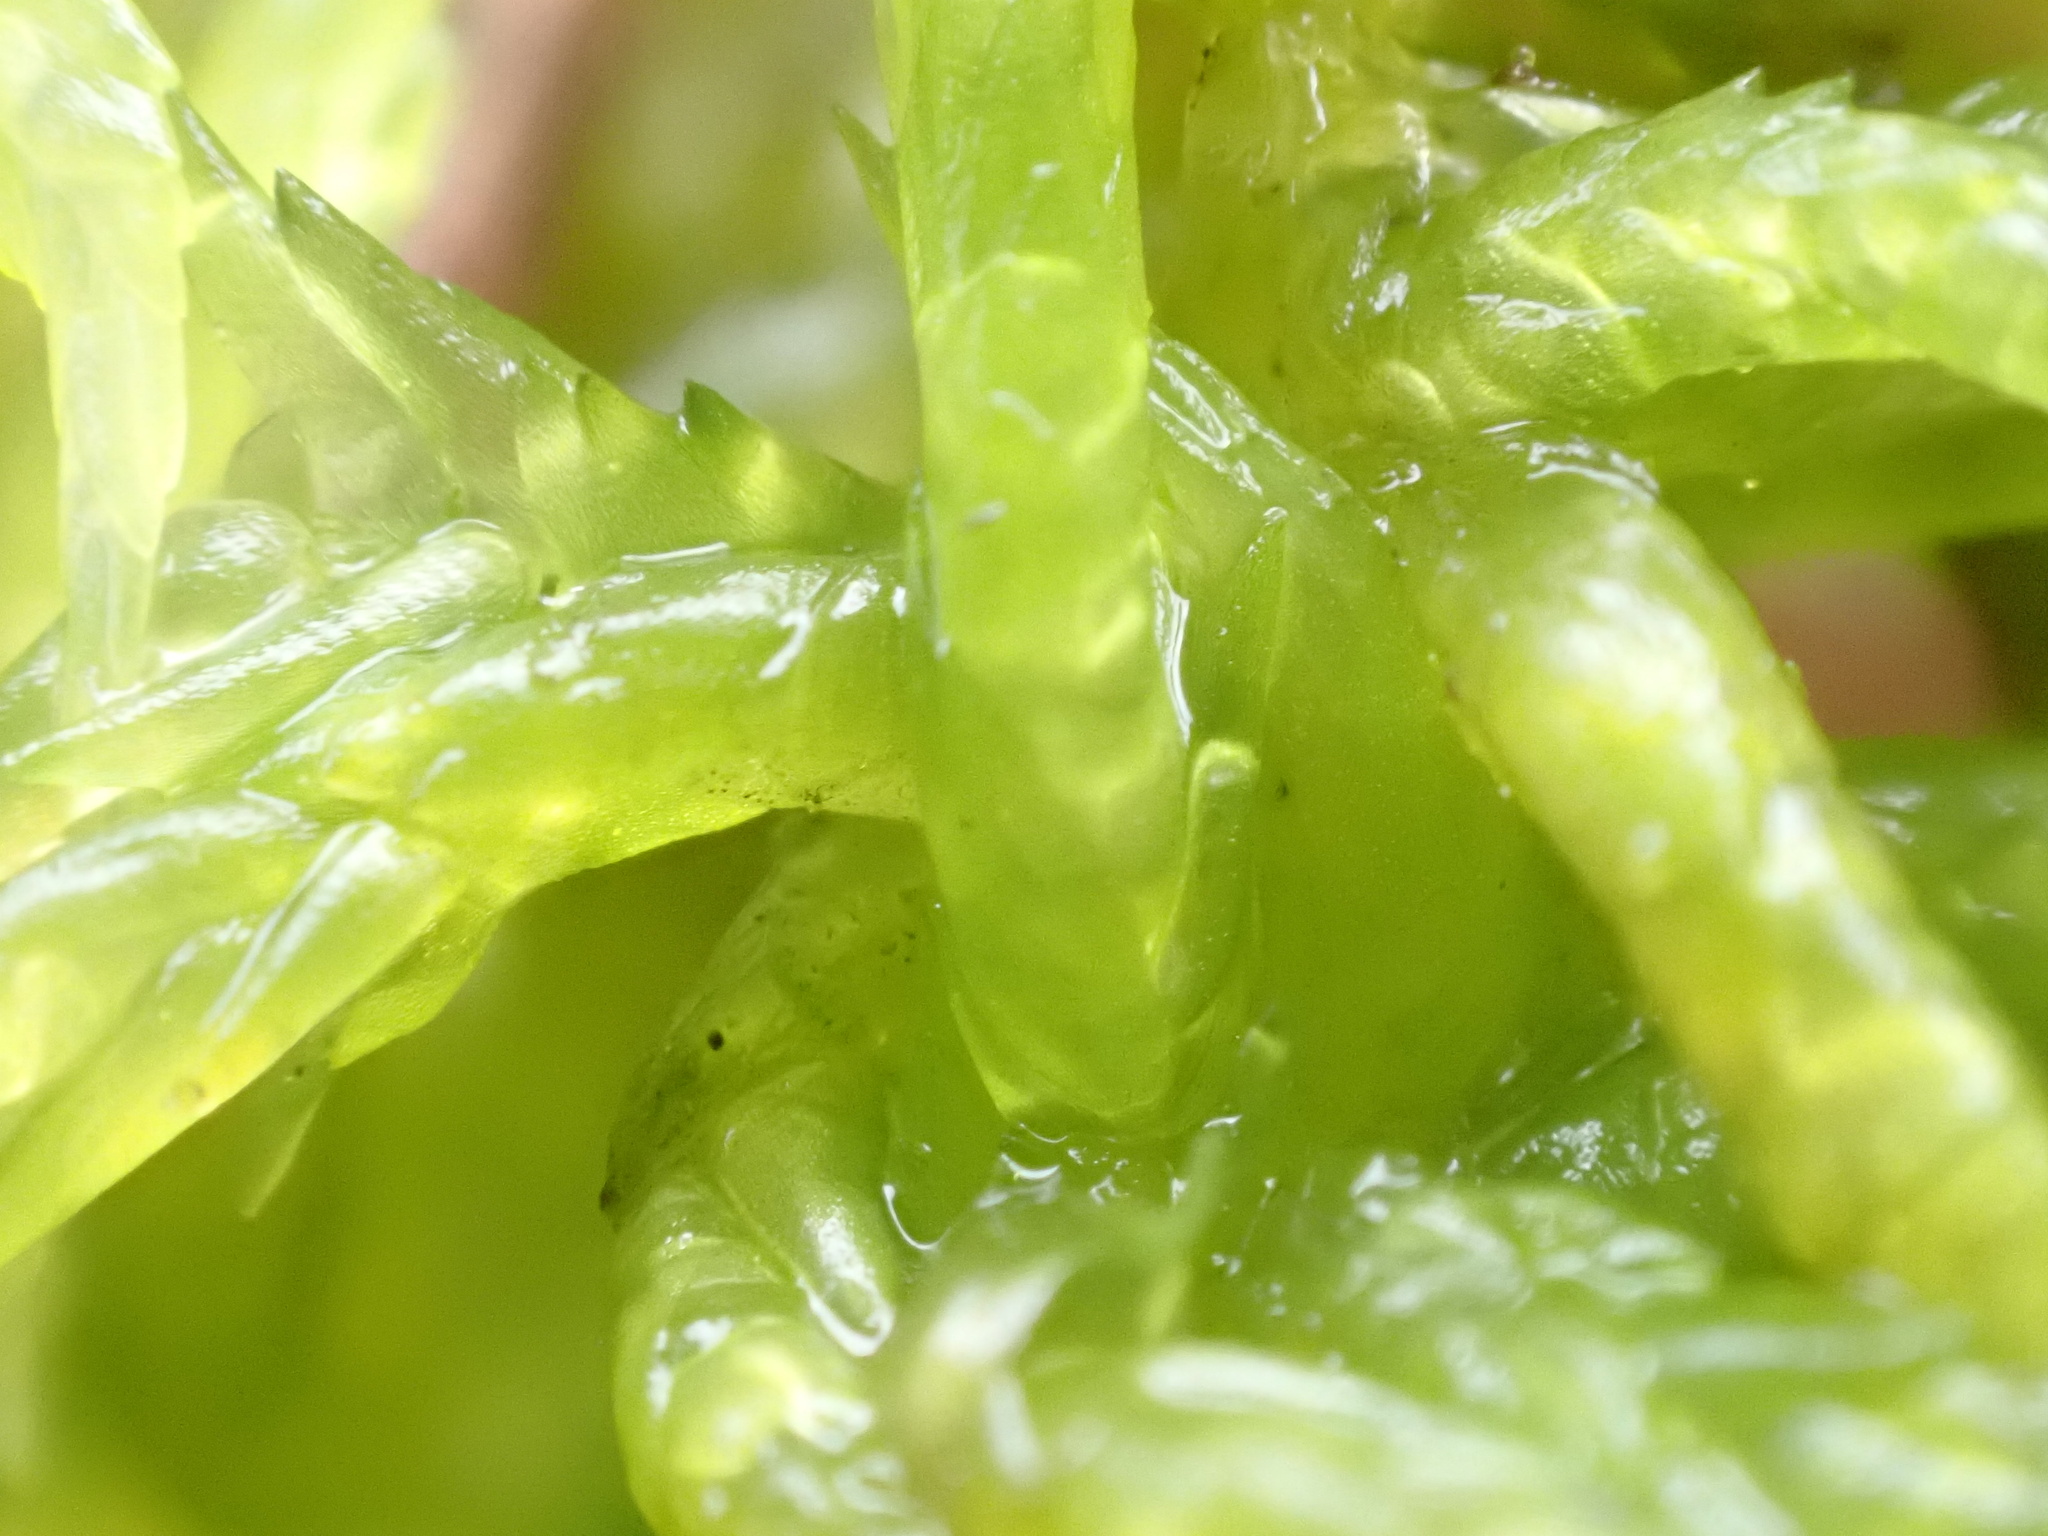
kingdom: Plantae
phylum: Bryophyta
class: Sphagnopsida
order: Sphagnales
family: Sphagnaceae
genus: Sphagnum
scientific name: Sphagnum denticulatum
